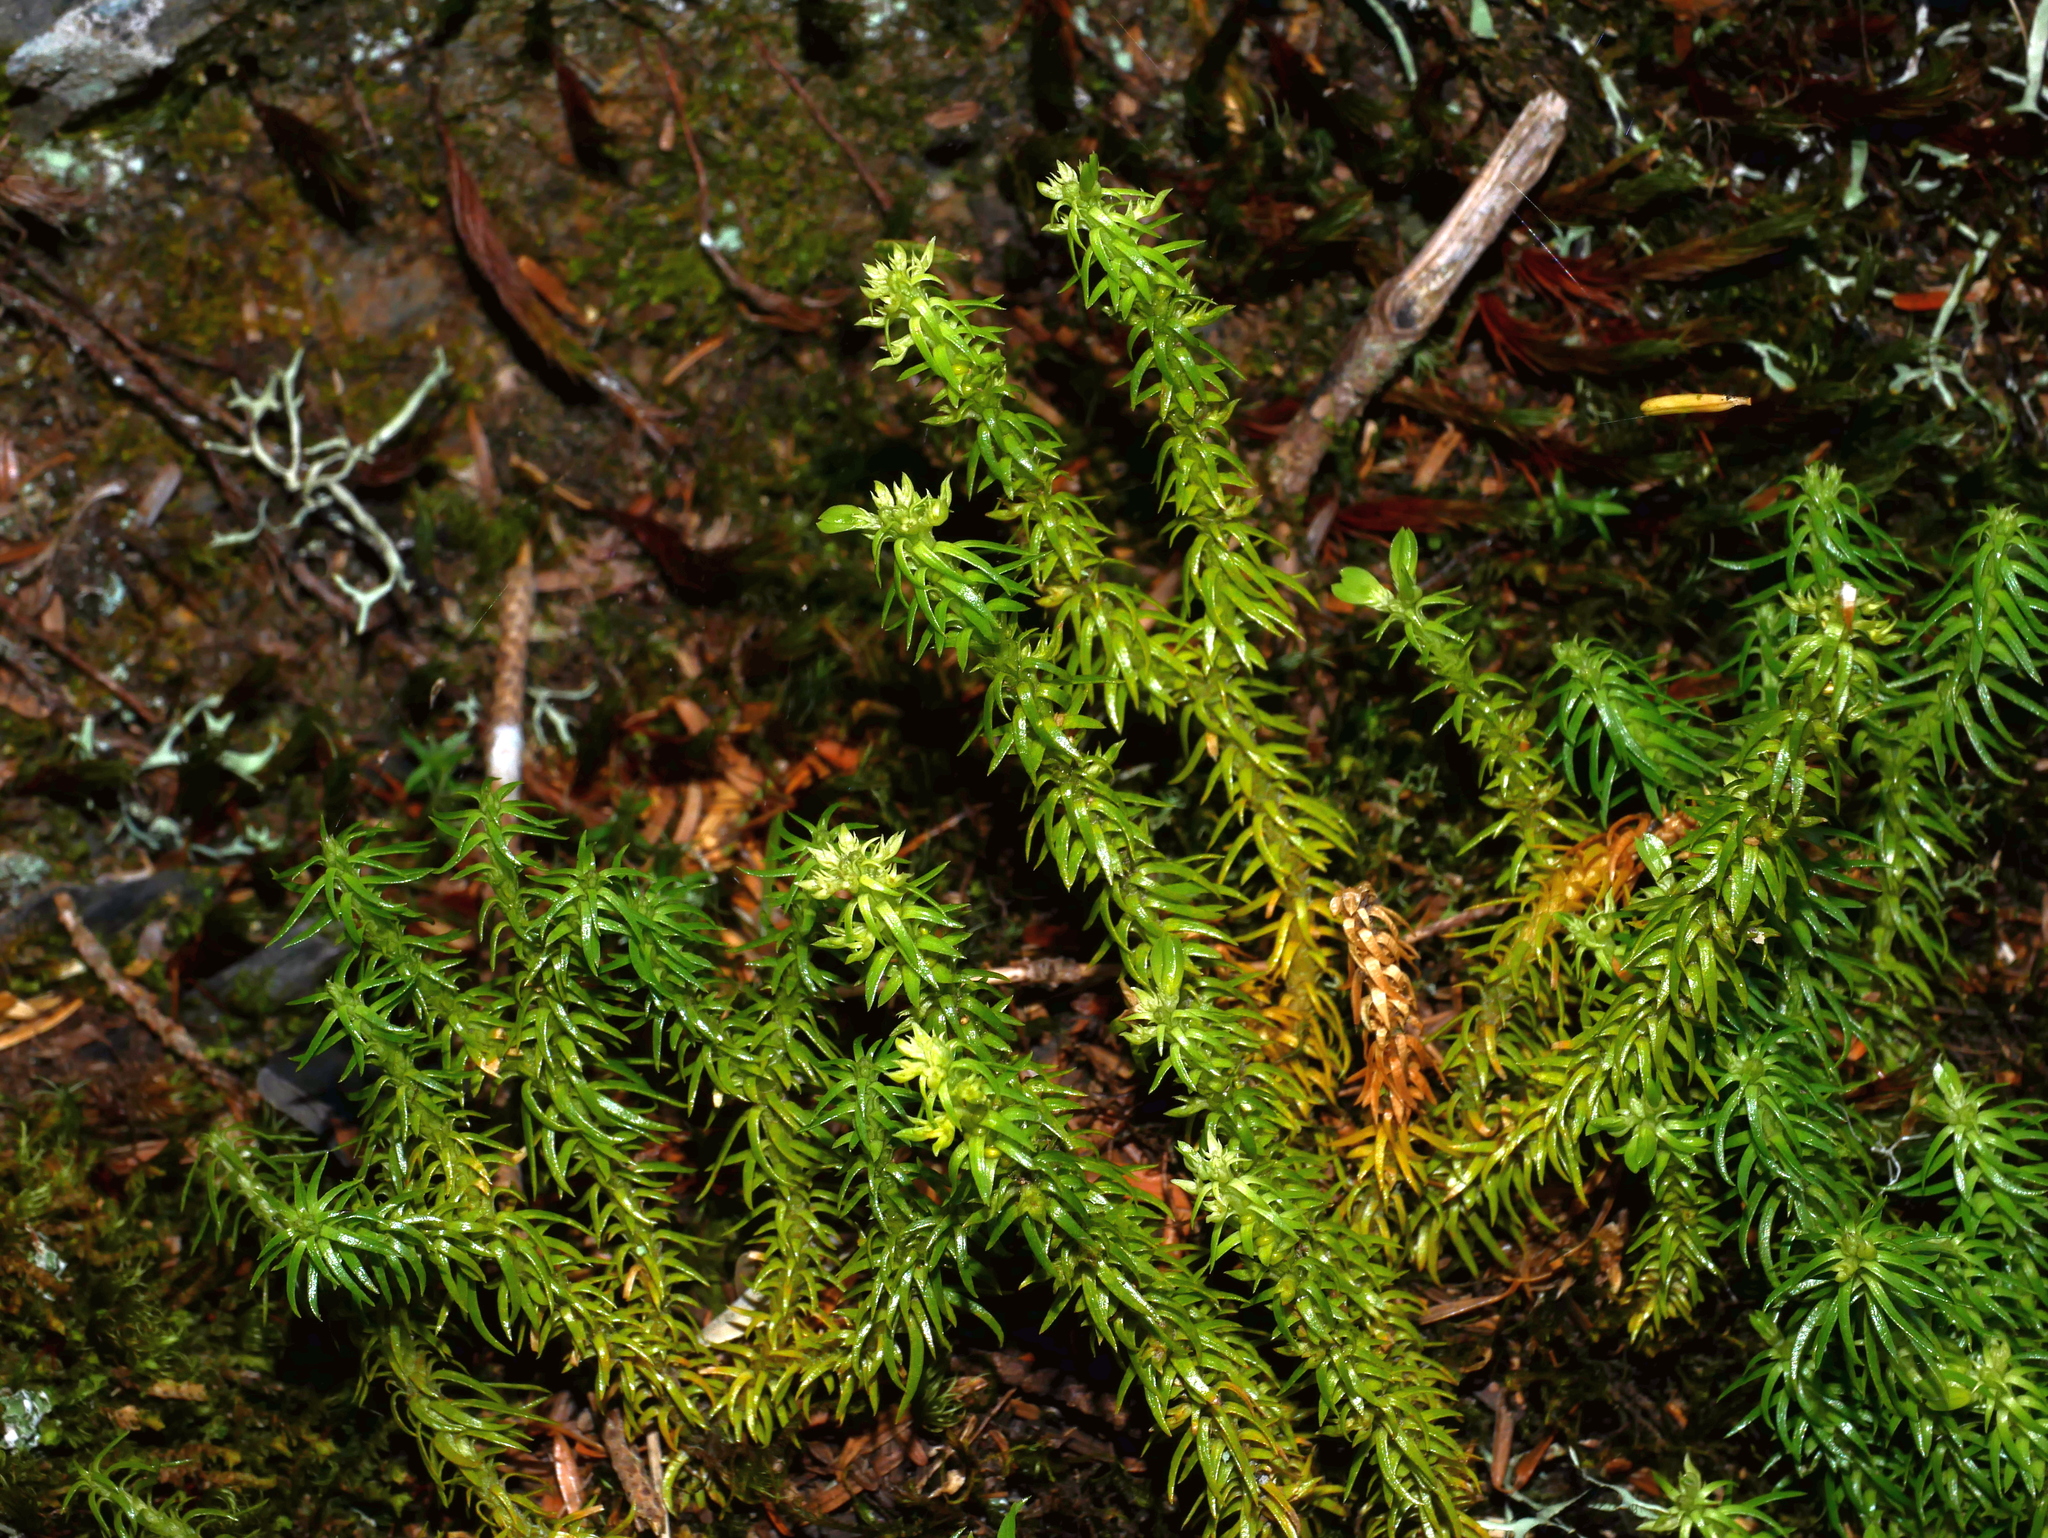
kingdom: Plantae
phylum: Tracheophyta
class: Lycopodiopsida
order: Lycopodiales
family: Lycopodiaceae
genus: Huperzia
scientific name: Huperzia quasipolytrichoides
